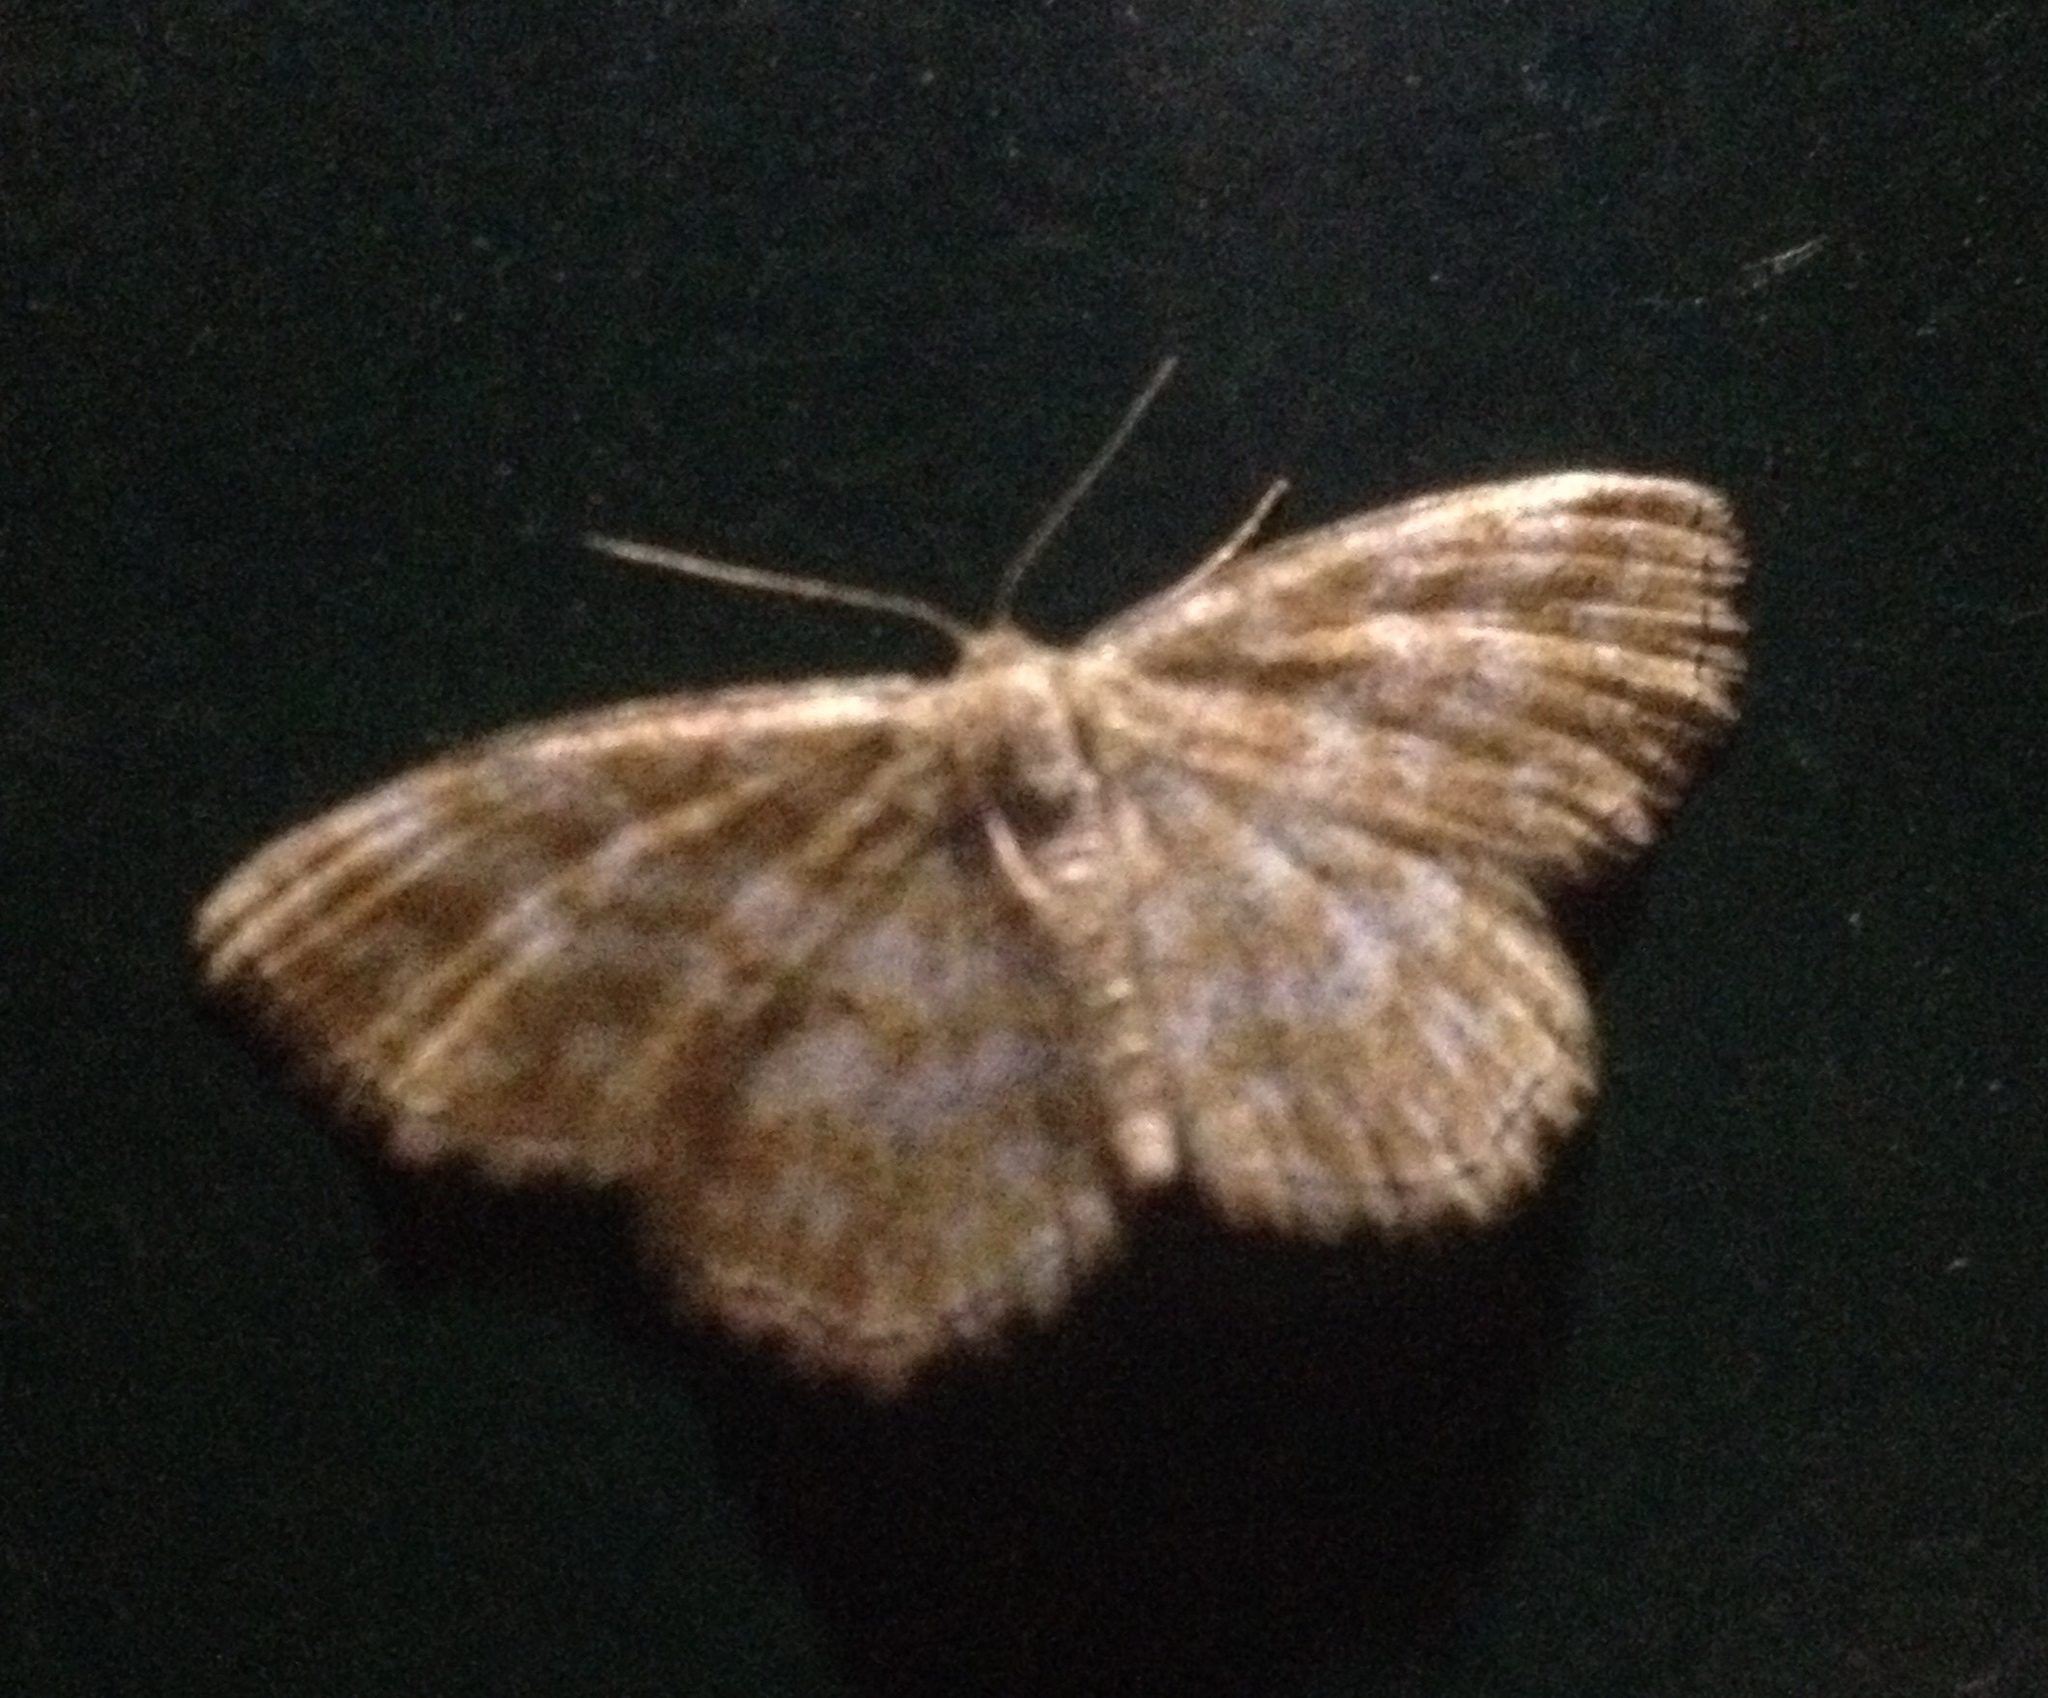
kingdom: Animalia
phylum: Arthropoda
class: Insecta
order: Lepidoptera
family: Geometridae
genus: Scopula
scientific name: Scopula immorata
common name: Lewes wave
